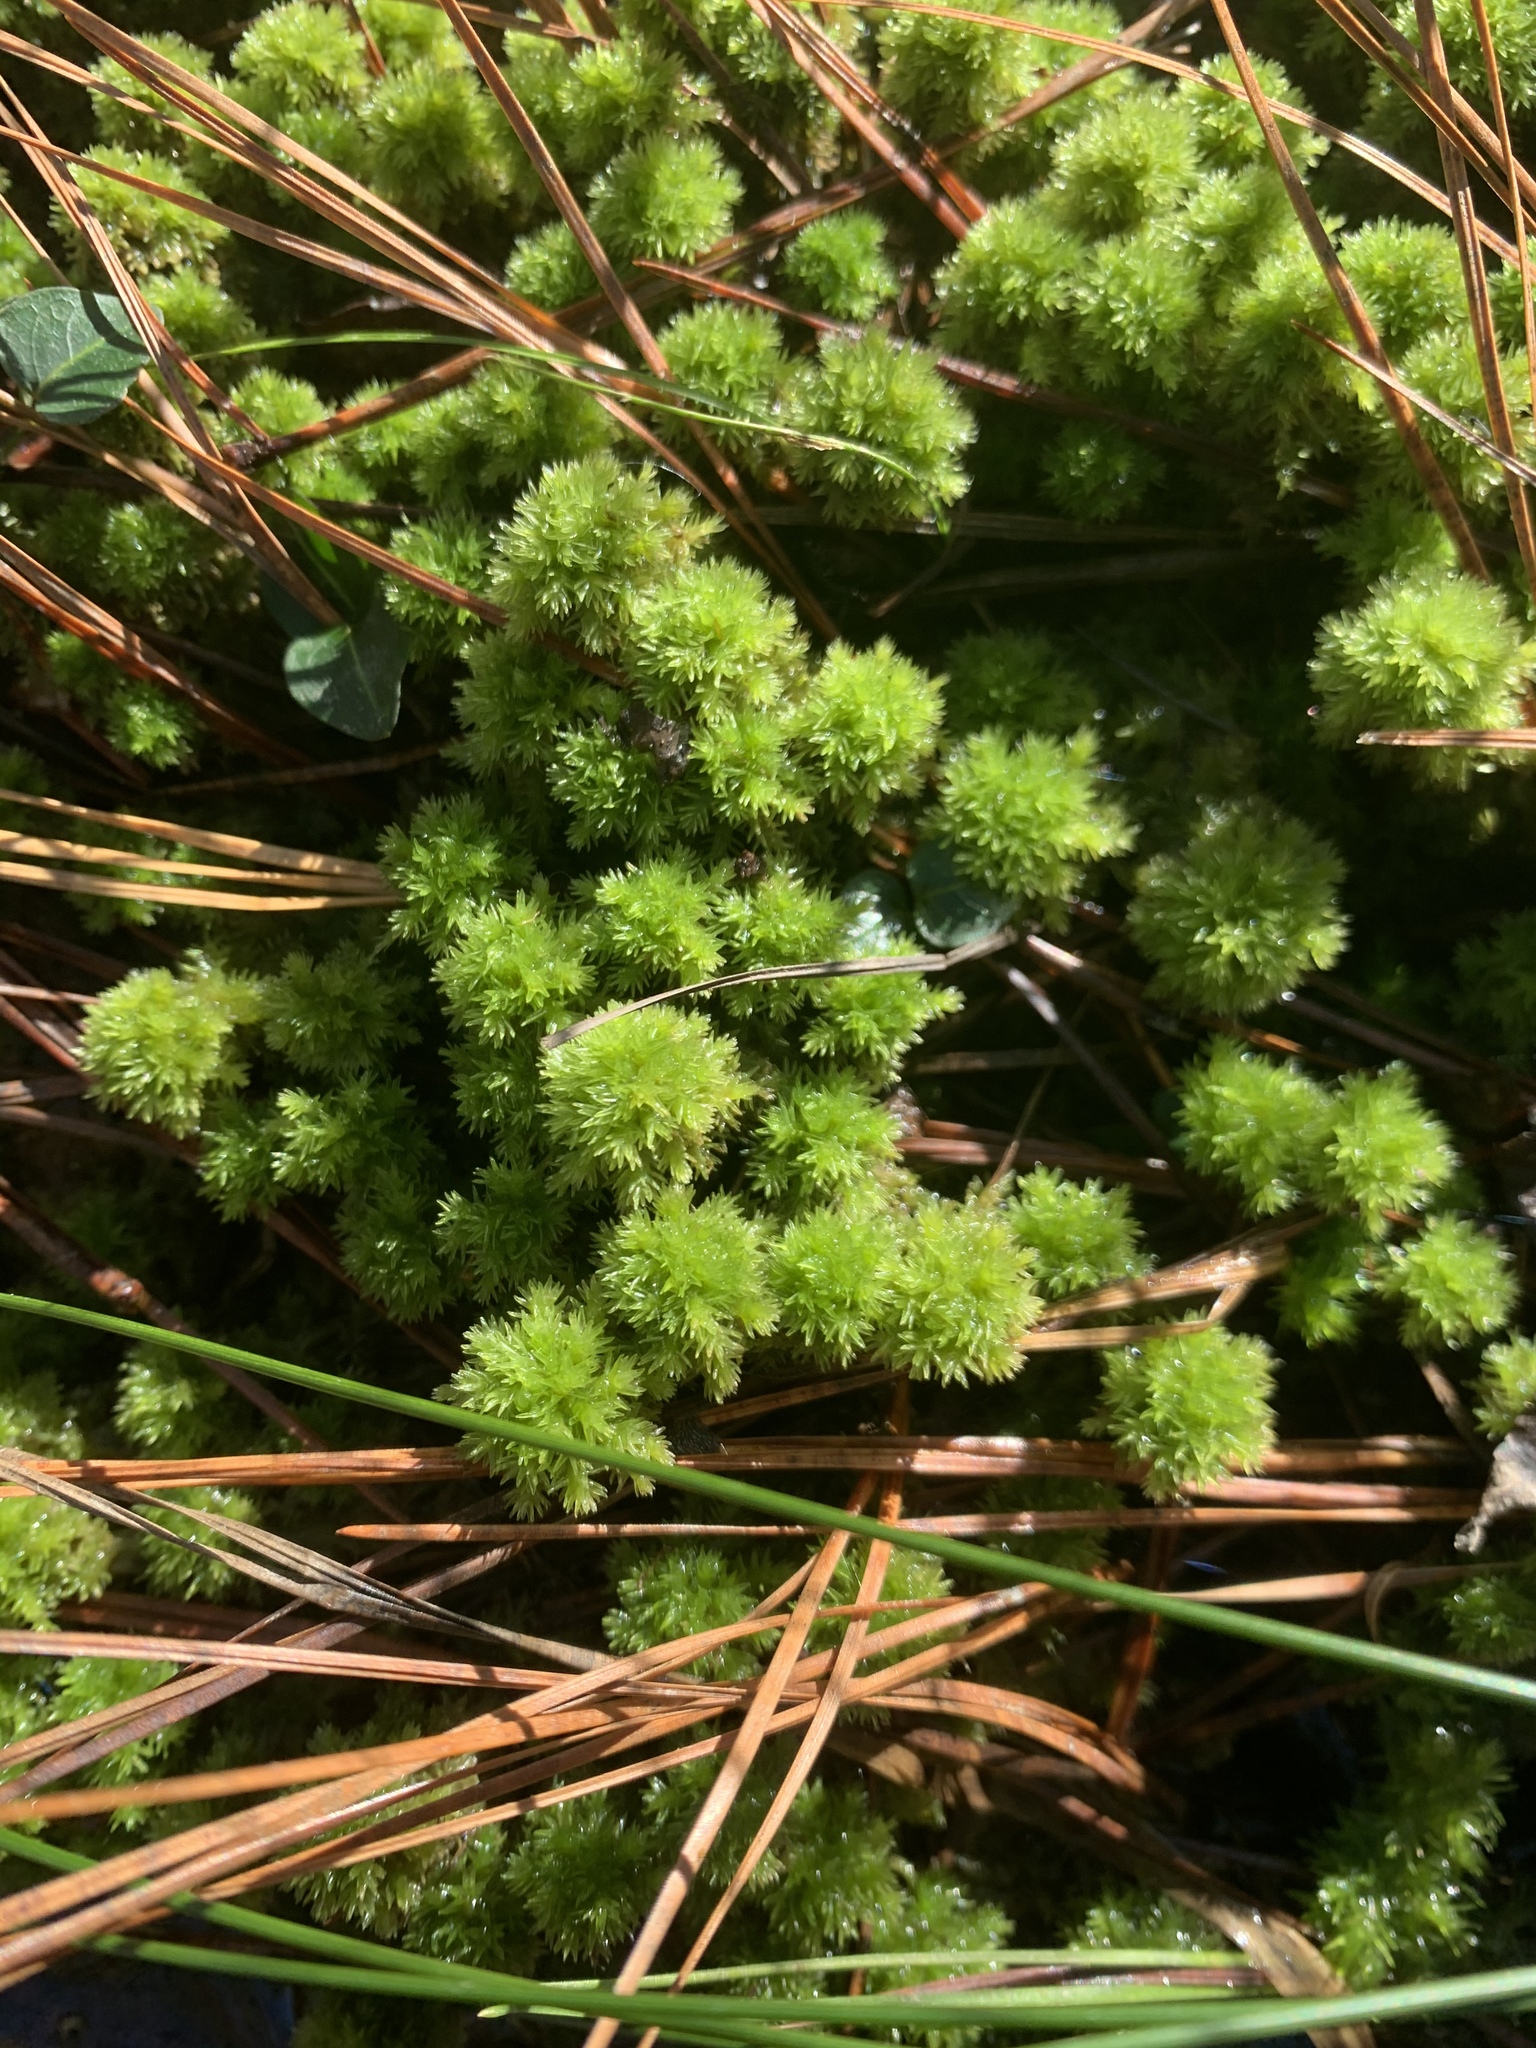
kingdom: Plantae
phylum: Bryophyta
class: Sphagnopsida
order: Sphagnales
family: Sphagnaceae
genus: Sphagnum
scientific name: Sphagnum strictum
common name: Pale bog-moss
